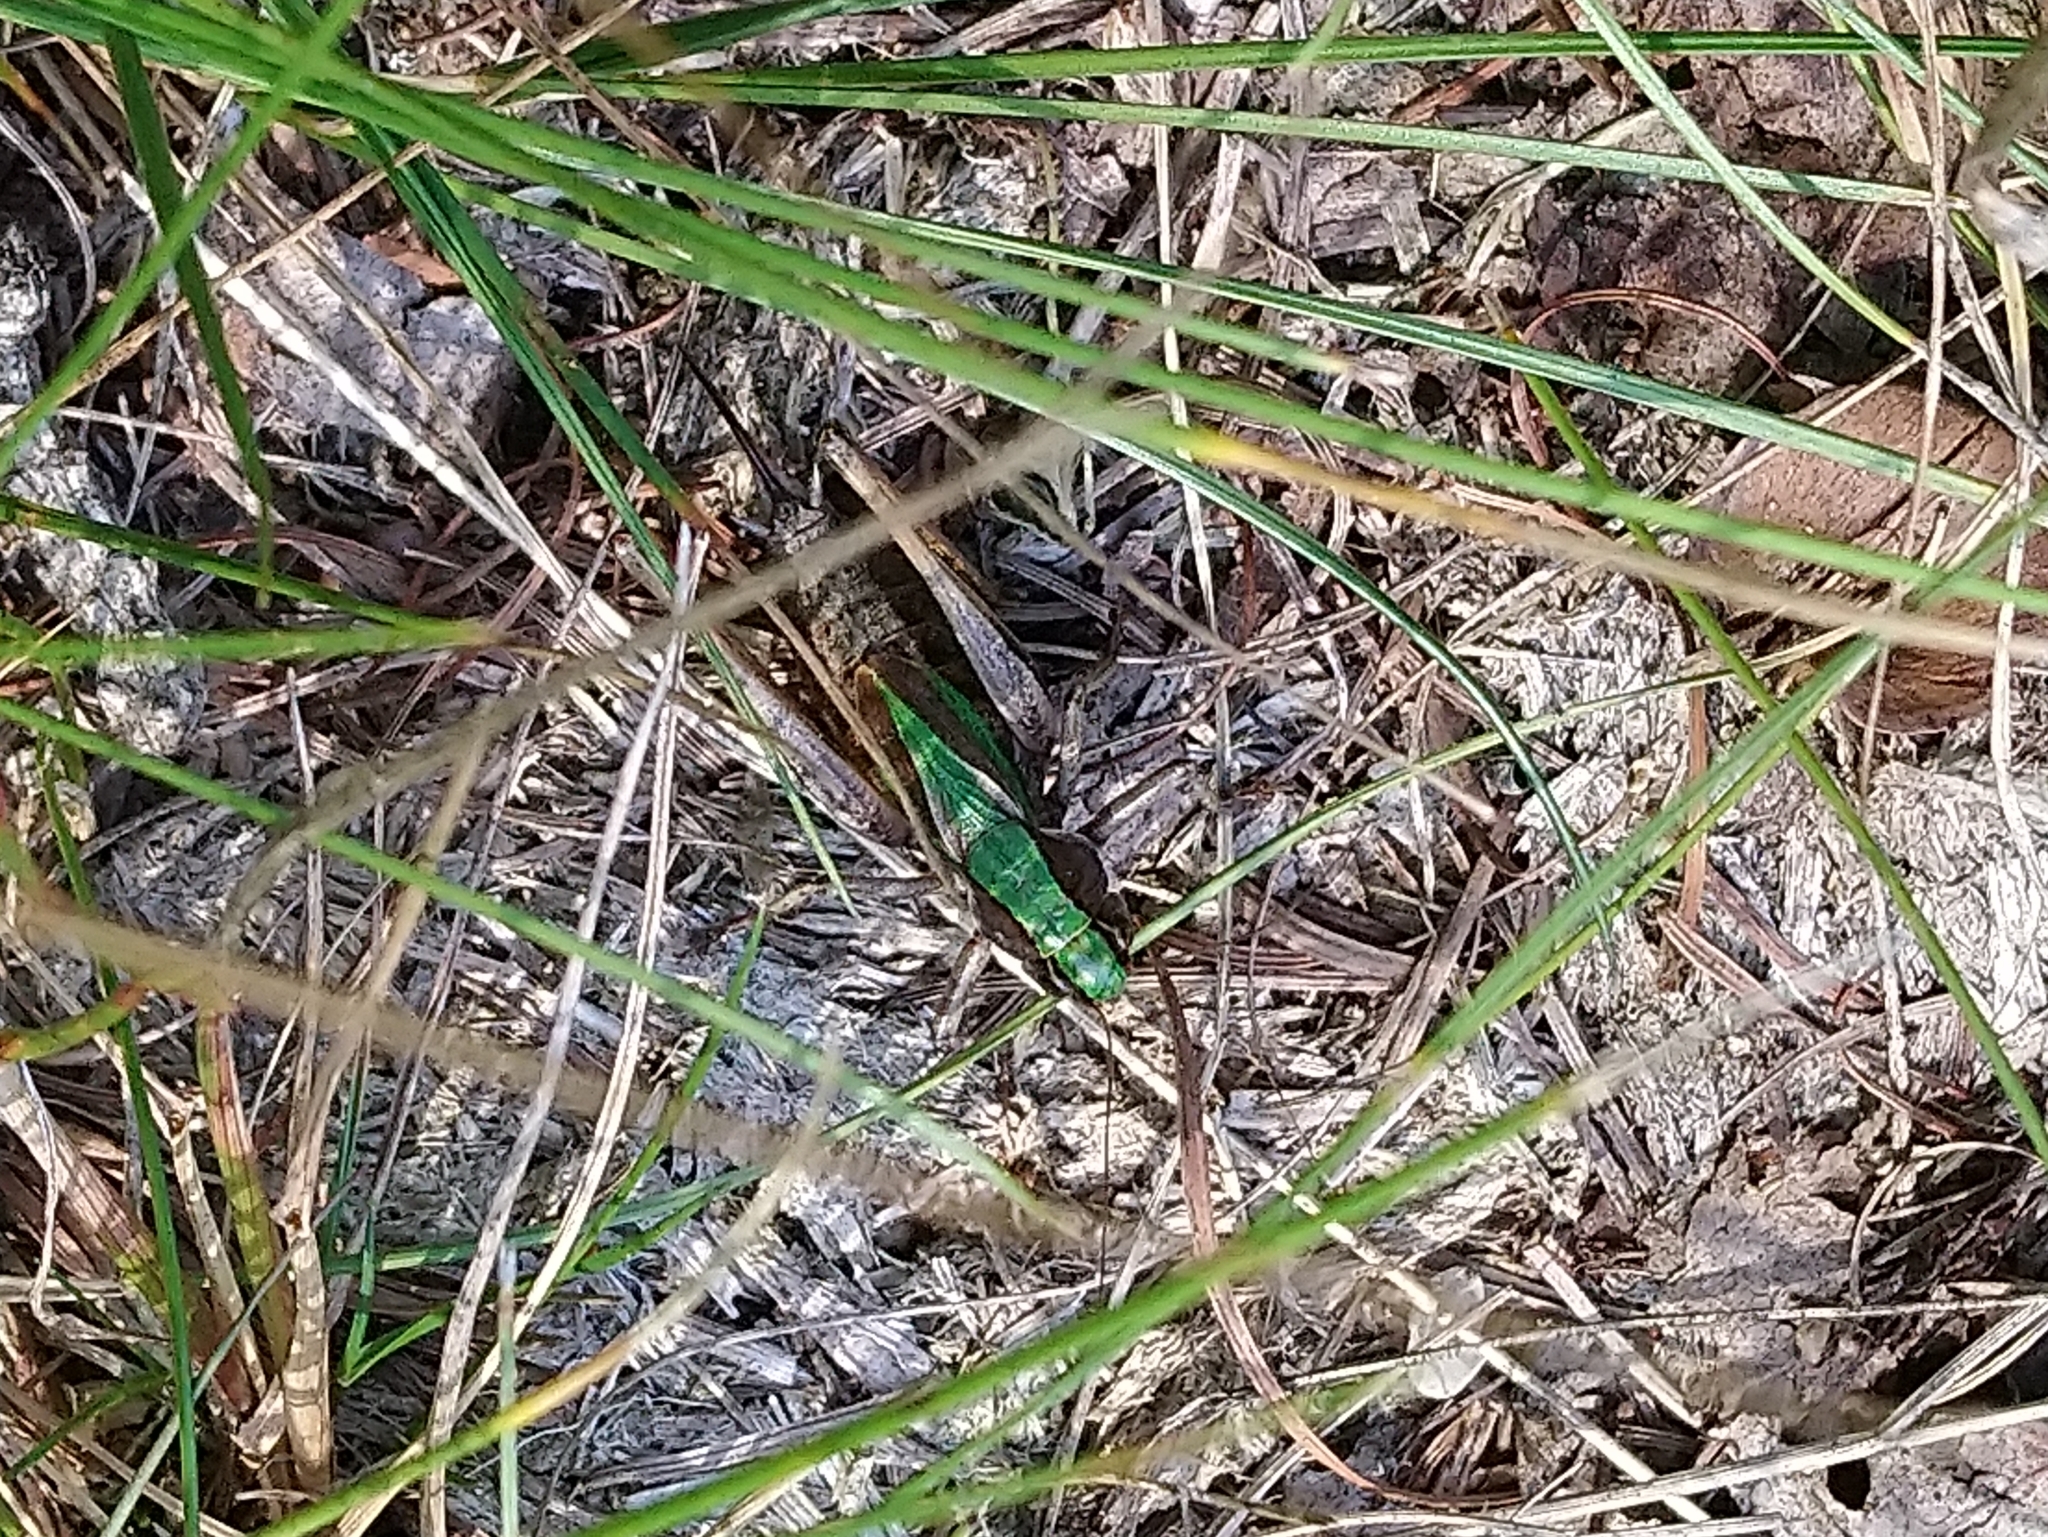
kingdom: Animalia
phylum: Arthropoda
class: Insecta
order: Orthoptera
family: Tettigoniidae
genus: Metrioptera
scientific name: Metrioptera brachyptera
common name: Bog bush-cricket
